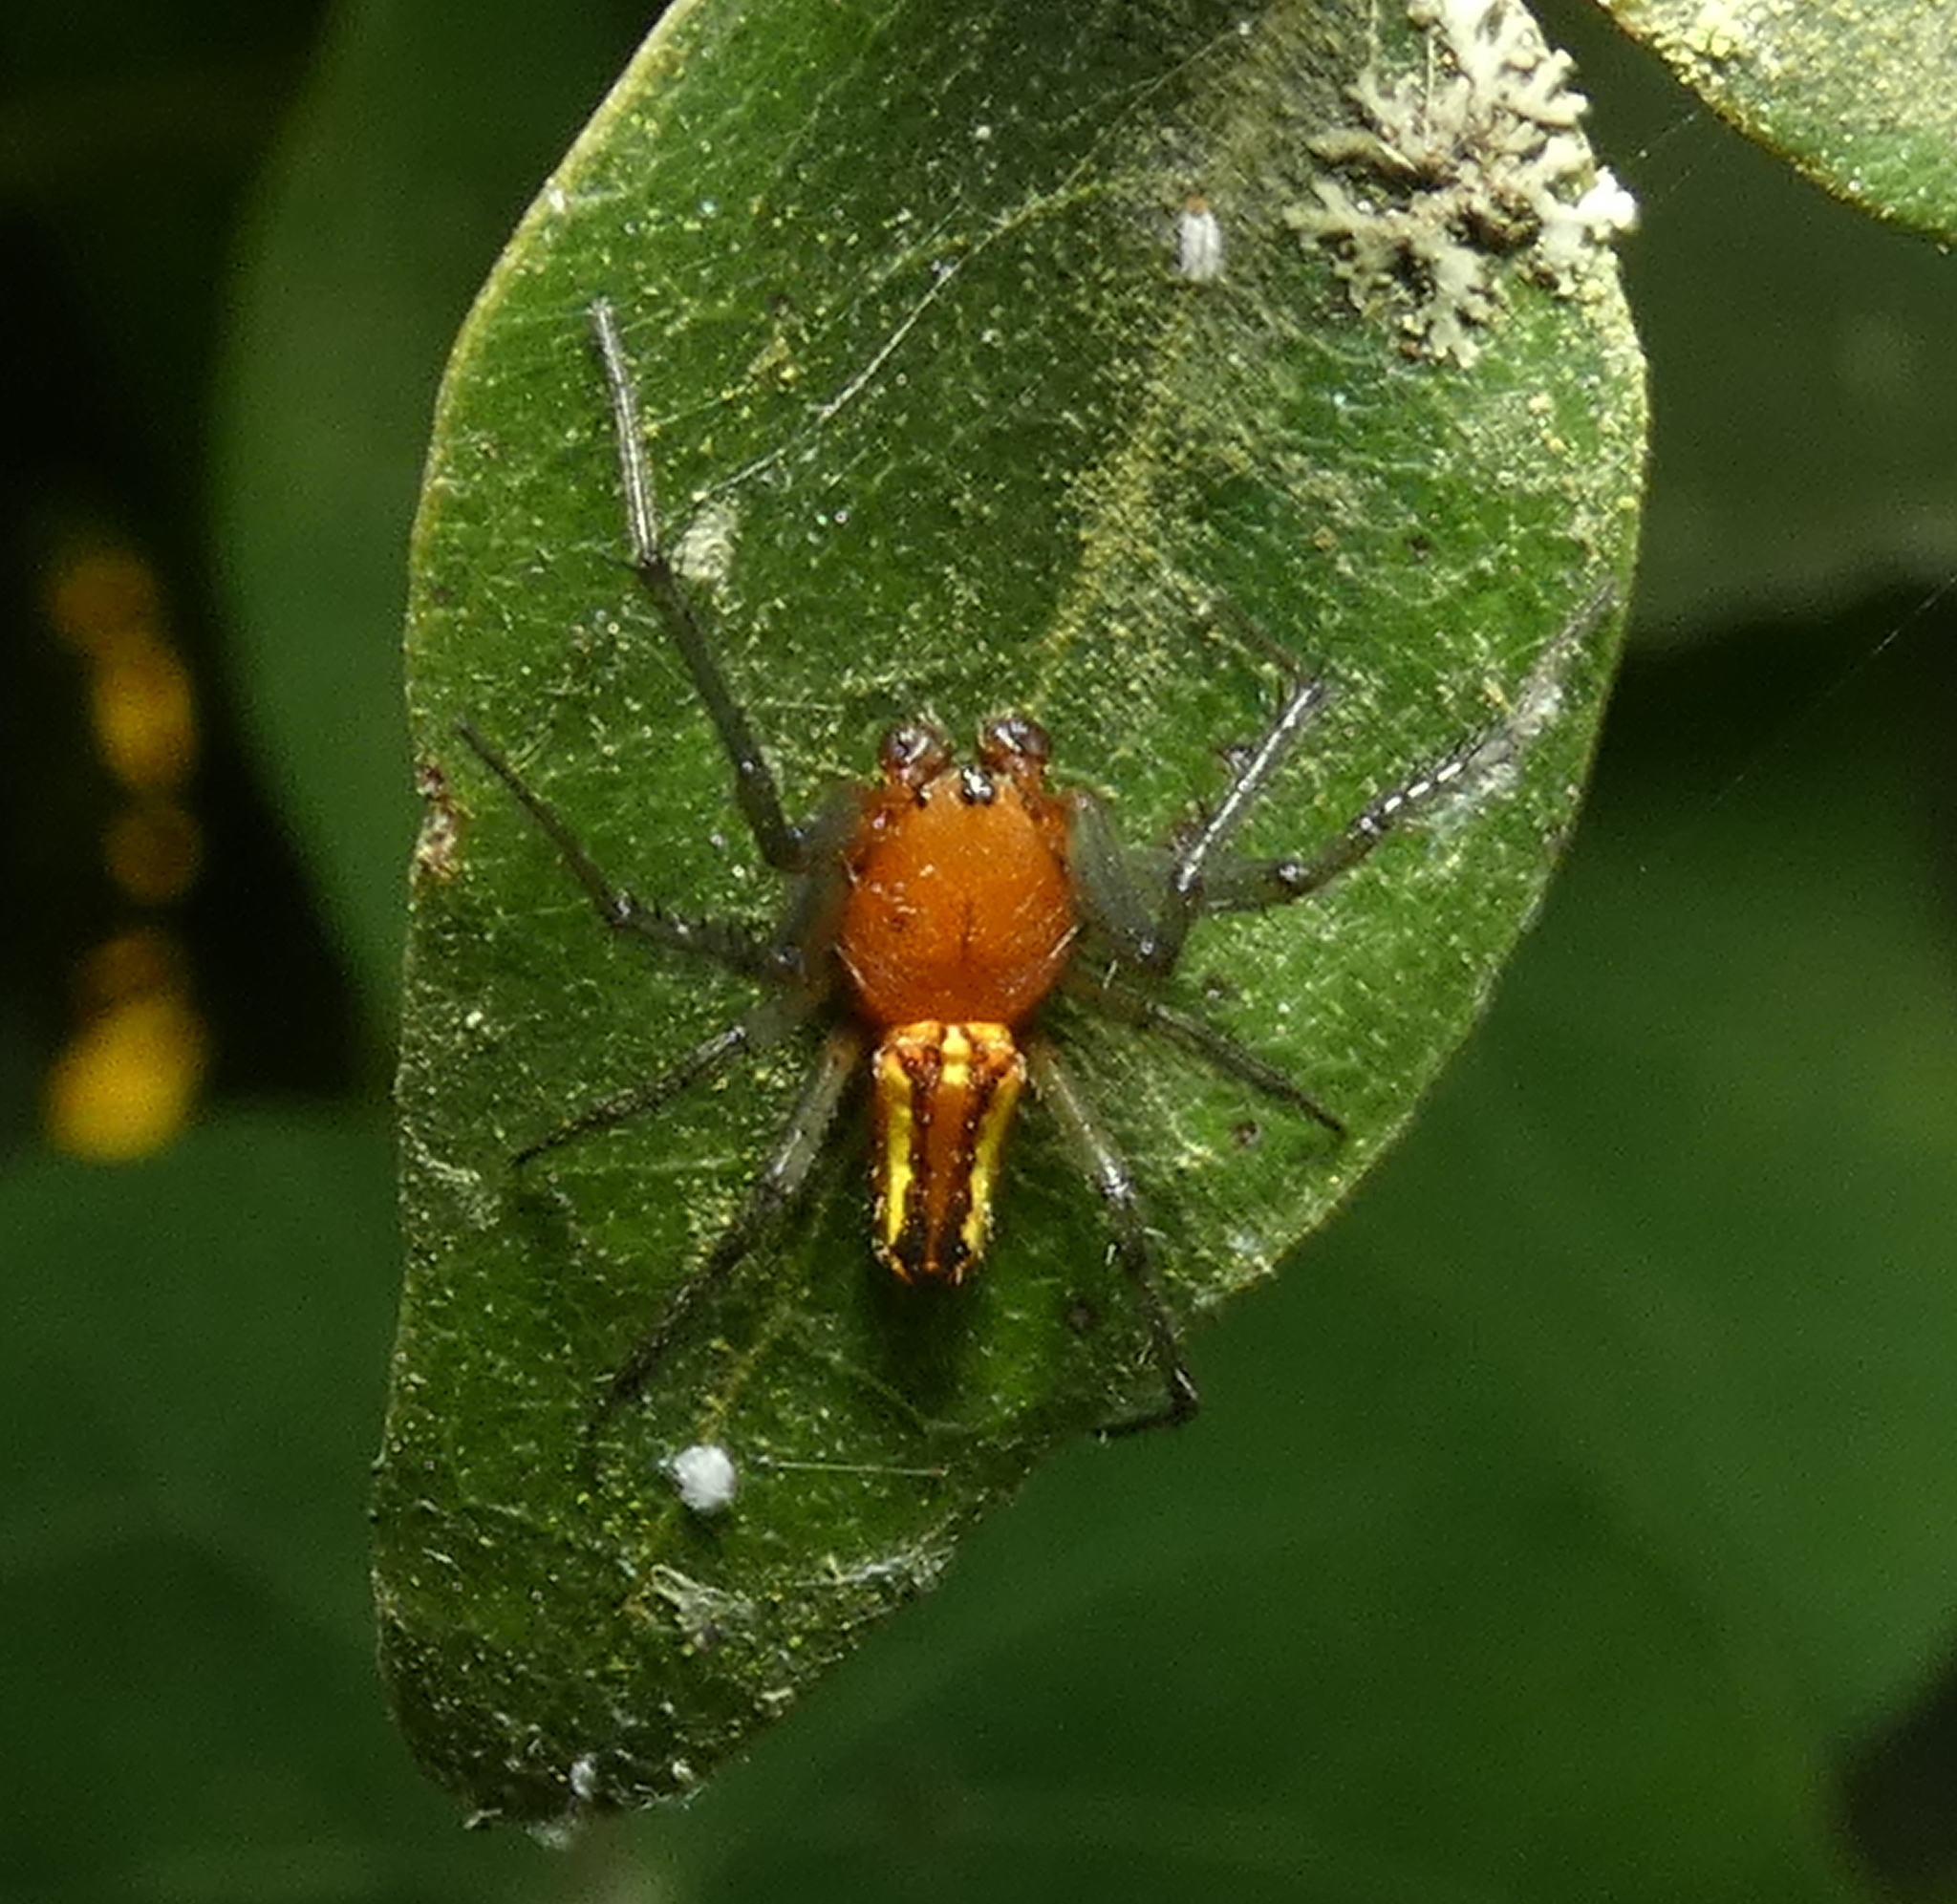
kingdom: Animalia
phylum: Arthropoda
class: Arachnida
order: Araneae
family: Araneidae
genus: Alpaida
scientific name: Alpaida bicornuta
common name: Orb weavers
